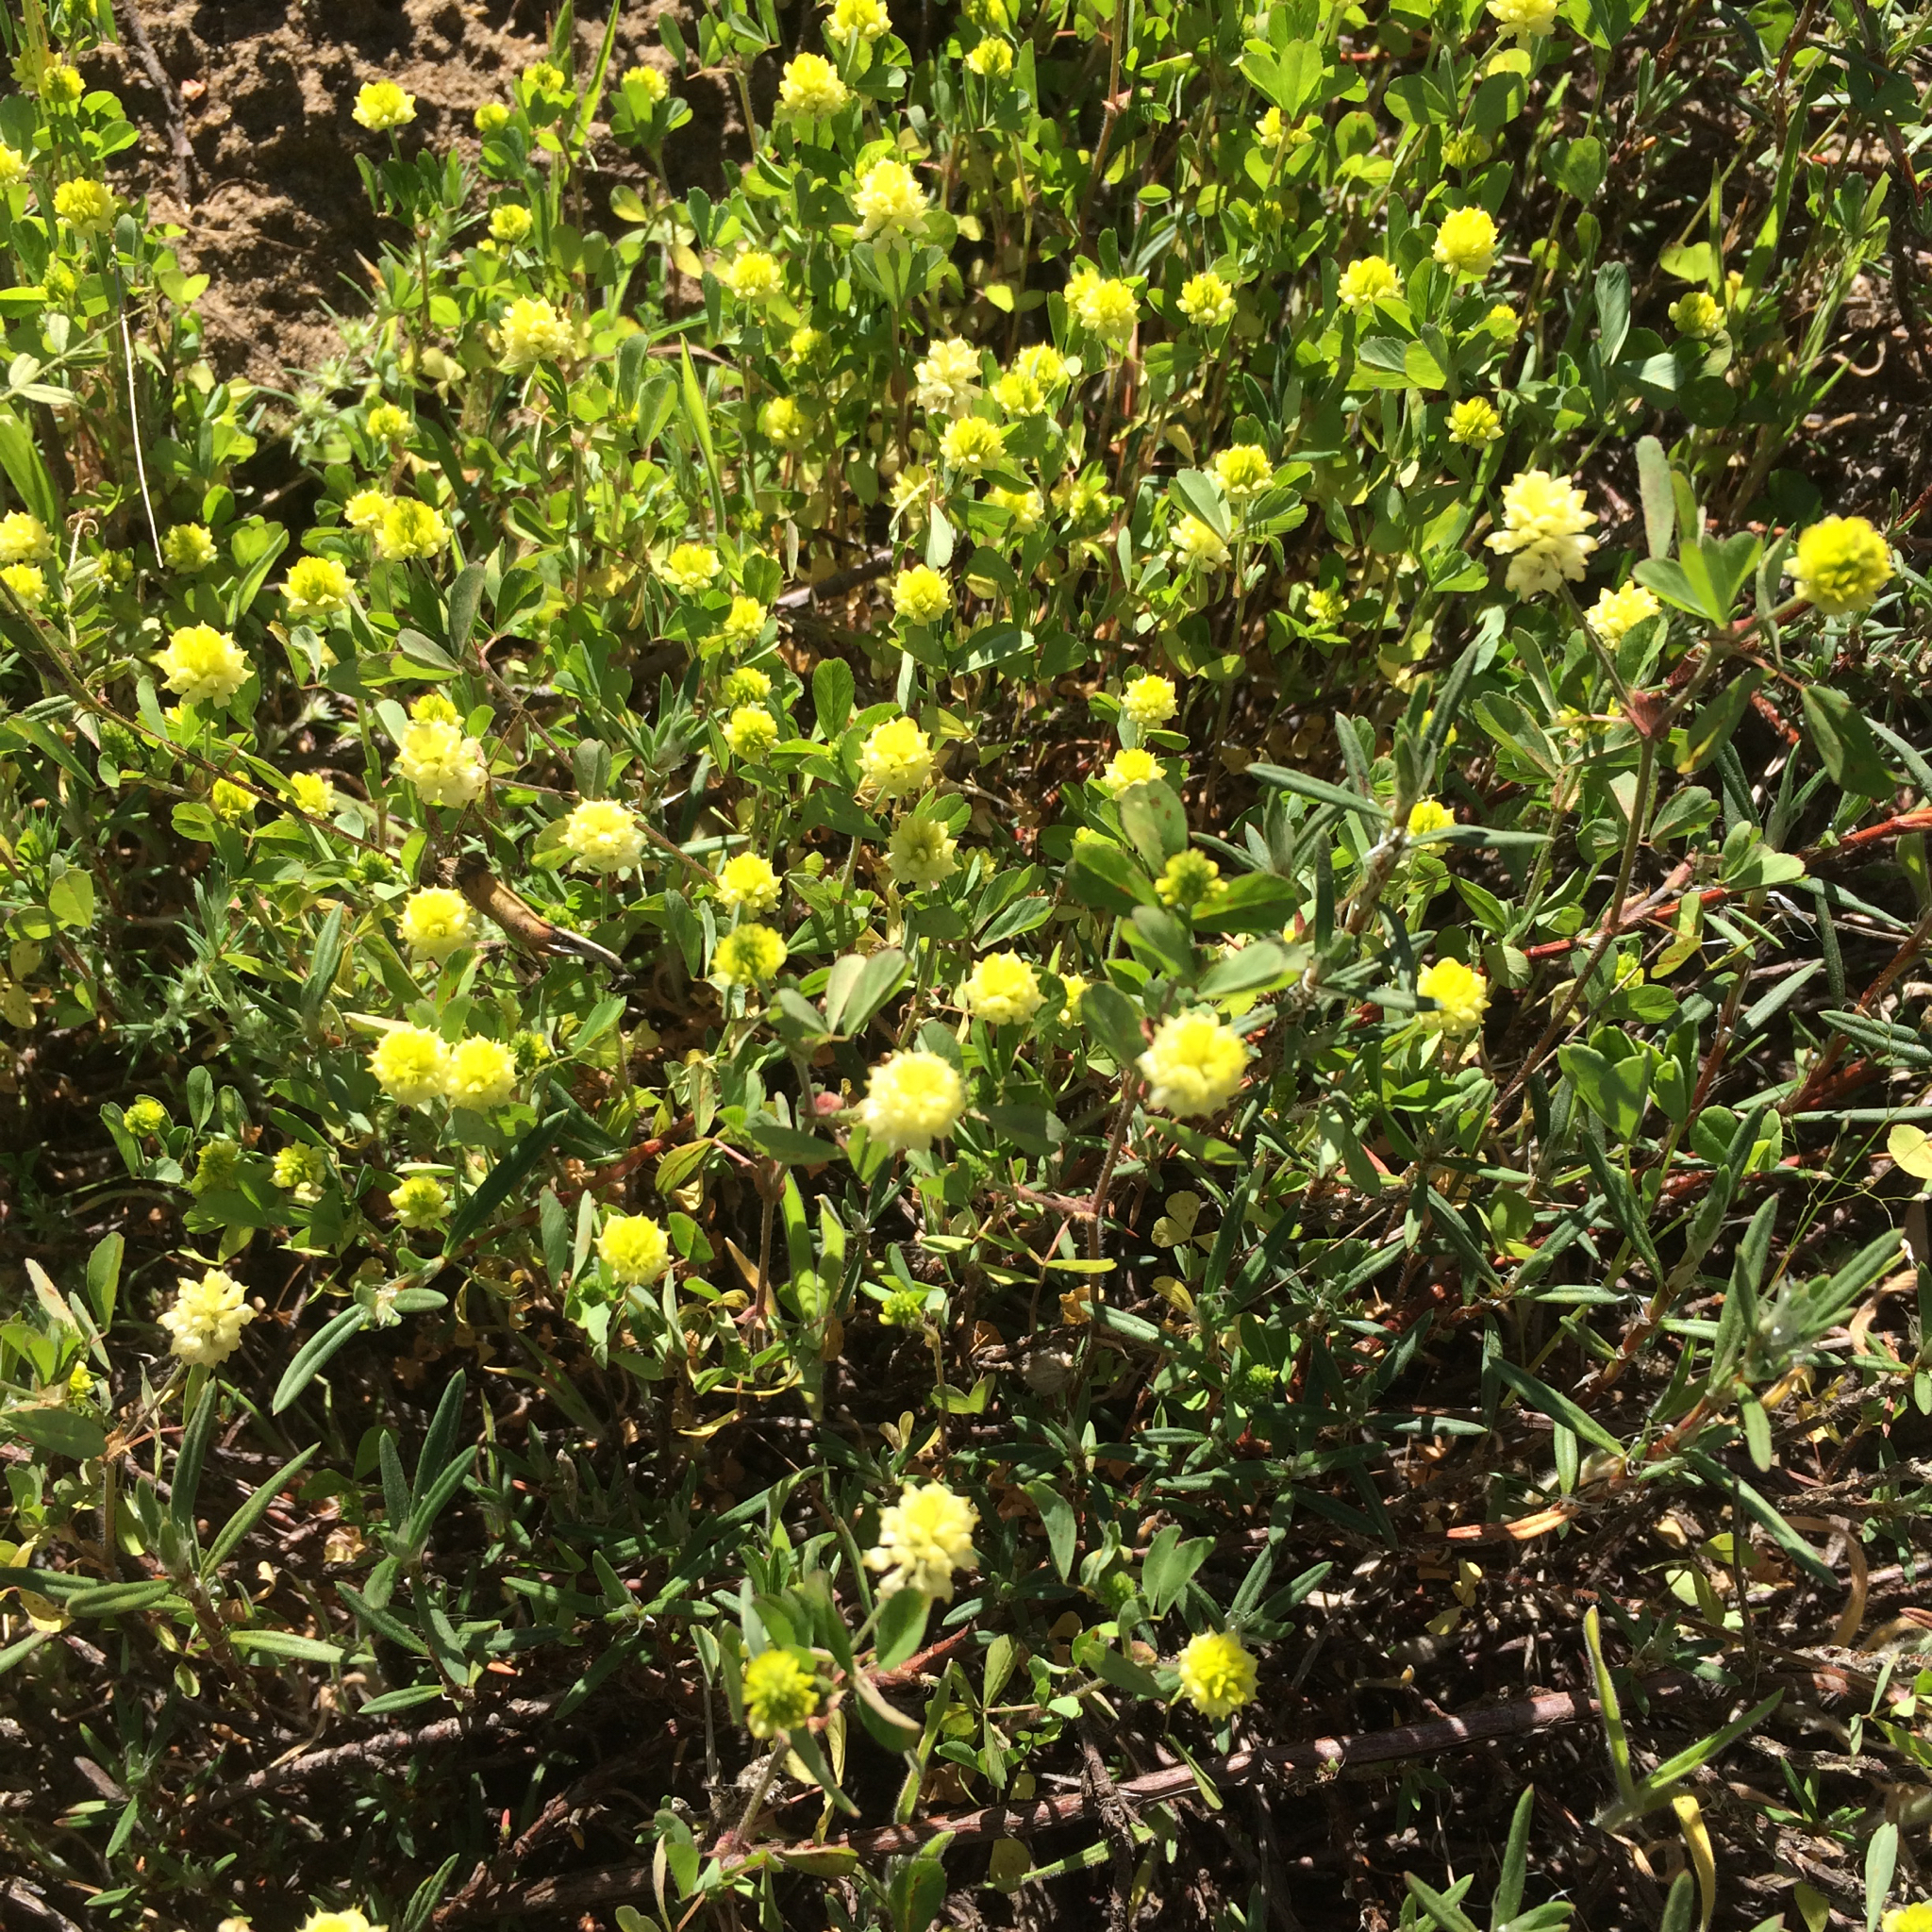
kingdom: Plantae
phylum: Tracheophyta
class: Magnoliopsida
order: Fabales
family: Fabaceae
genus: Trifolium
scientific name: Trifolium campestre
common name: Field clover
